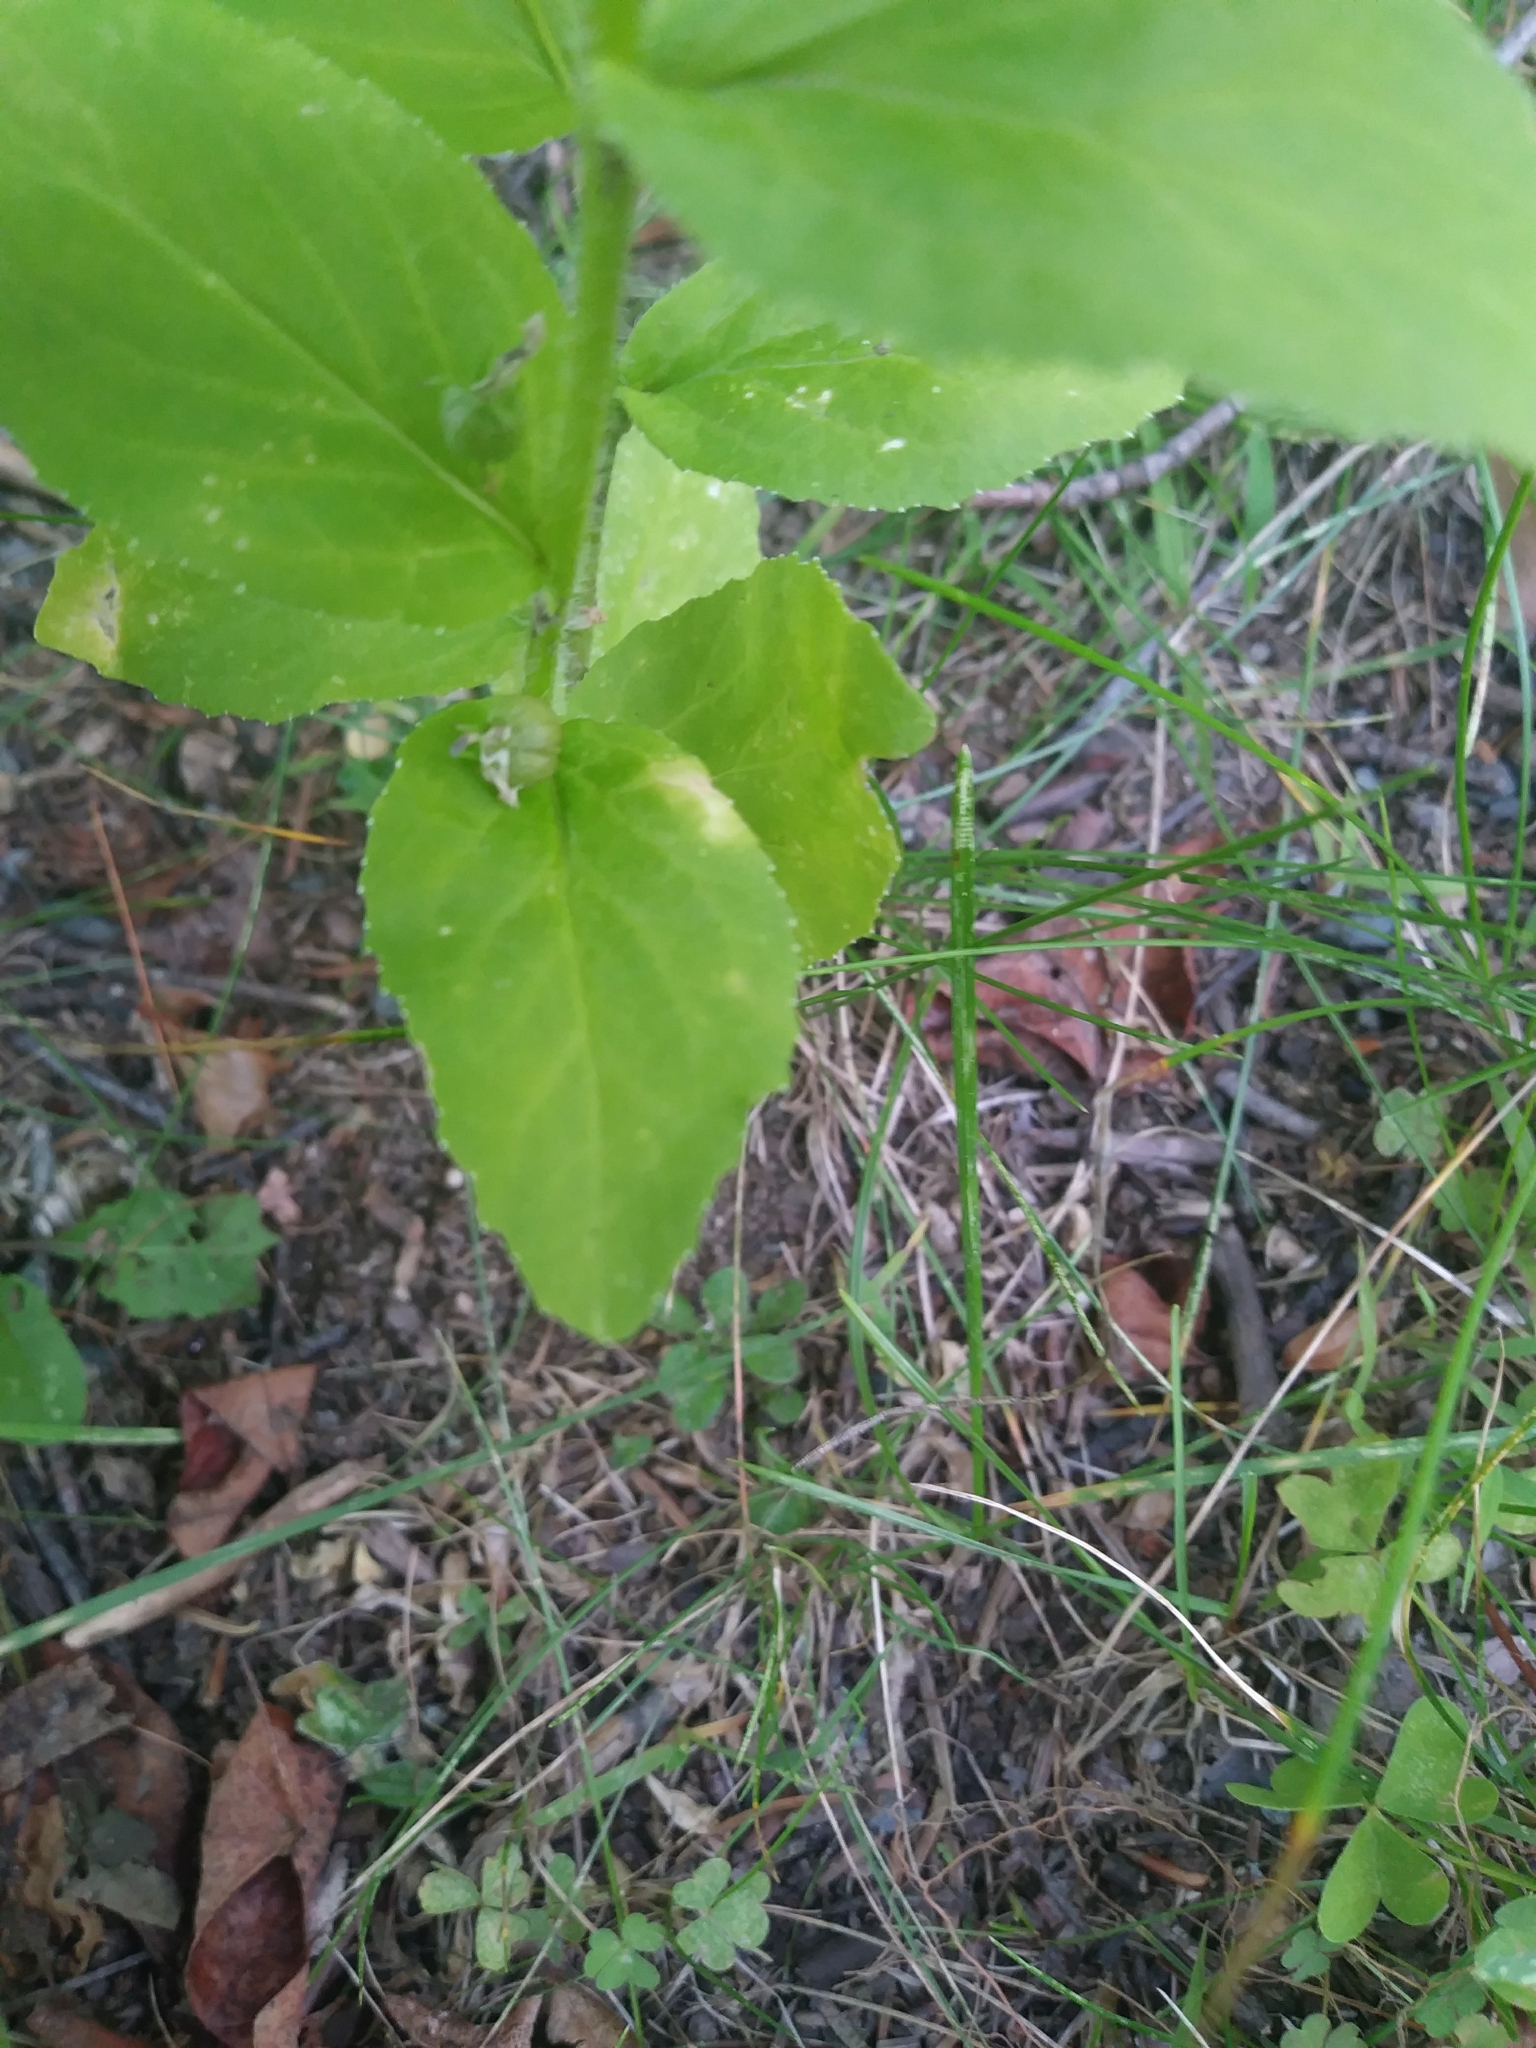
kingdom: Plantae
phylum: Tracheophyta
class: Magnoliopsida
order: Asterales
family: Campanulaceae
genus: Lobelia
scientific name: Lobelia inflata
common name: Indian tobacco
